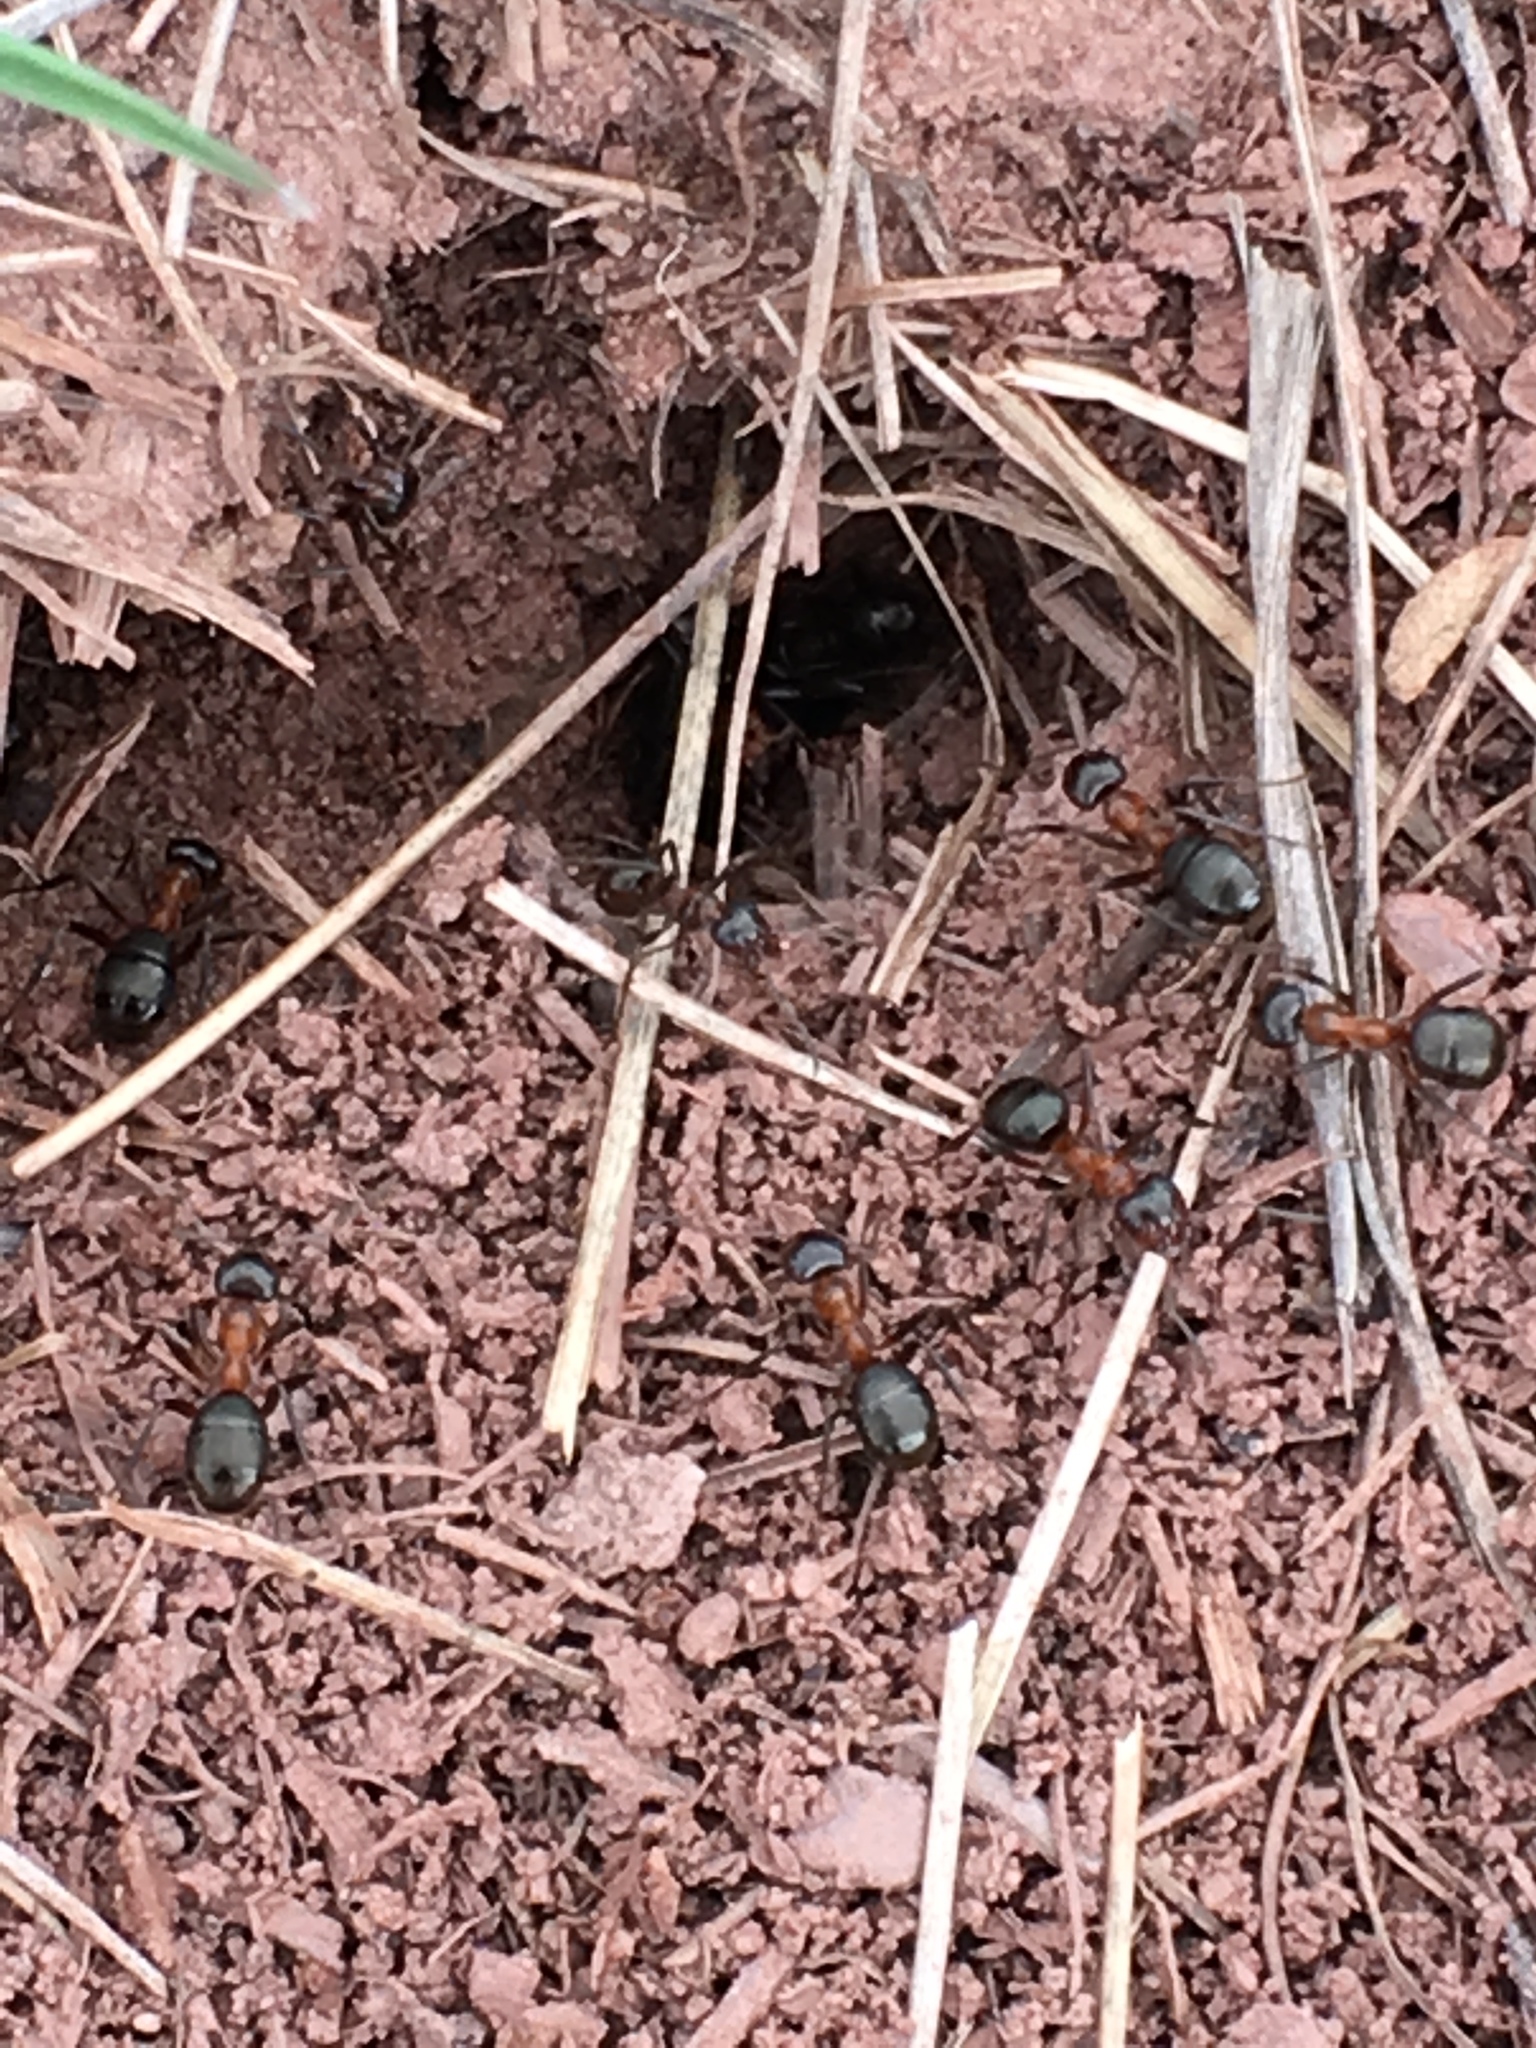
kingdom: Animalia
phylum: Arthropoda
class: Insecta
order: Hymenoptera
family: Formicidae
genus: Formica
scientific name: Formica ulkei
